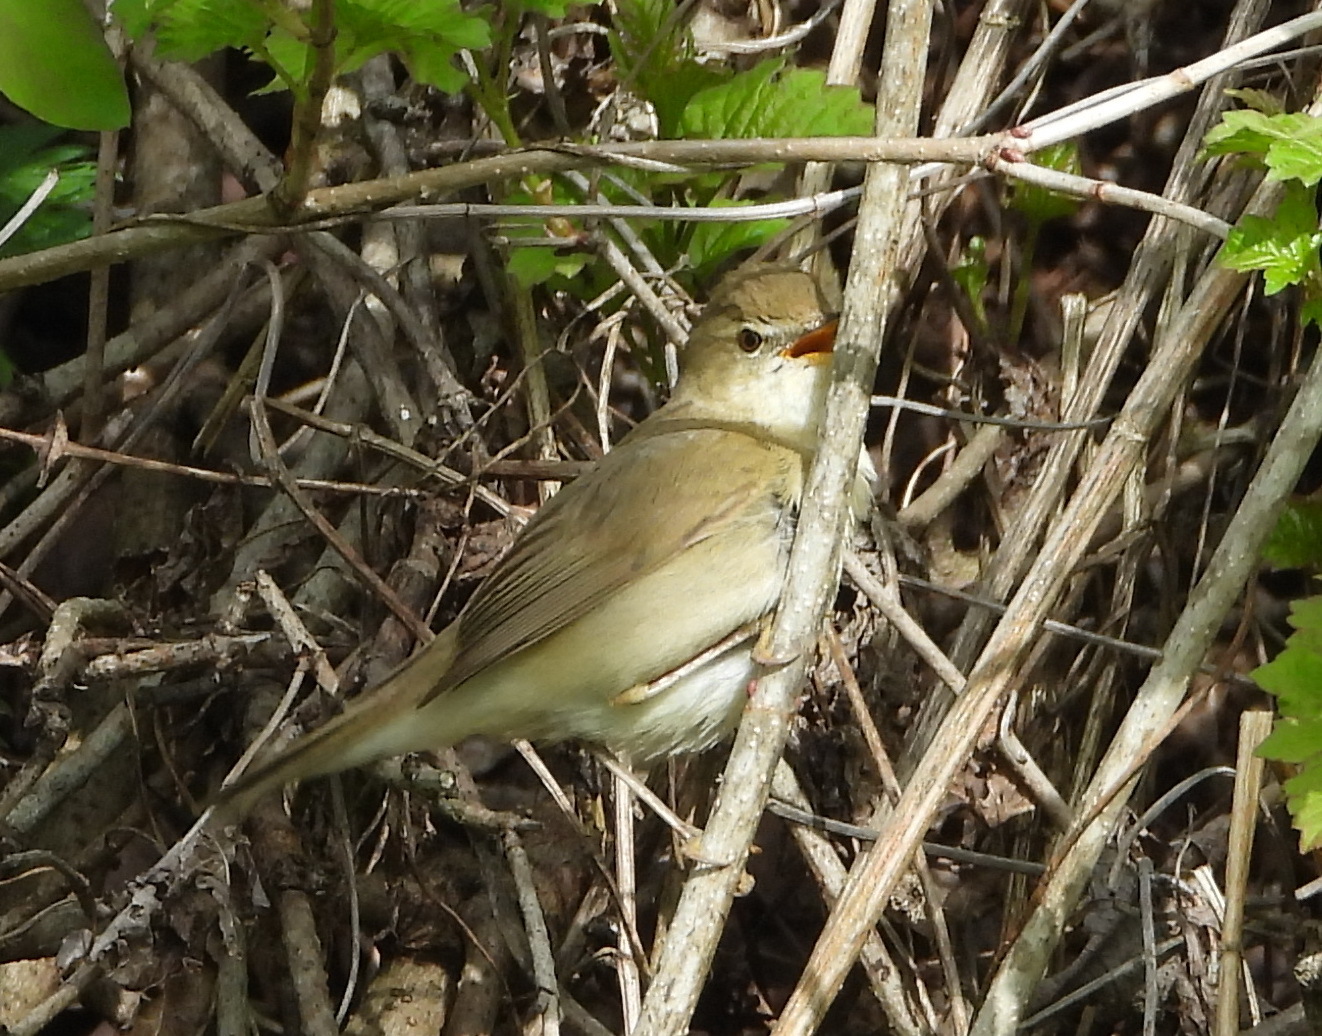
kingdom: Animalia
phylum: Chordata
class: Aves
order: Passeriformes
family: Acrocephalidae
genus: Acrocephalus
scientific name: Acrocephalus dumetorum
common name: Blyth's reed warbler
